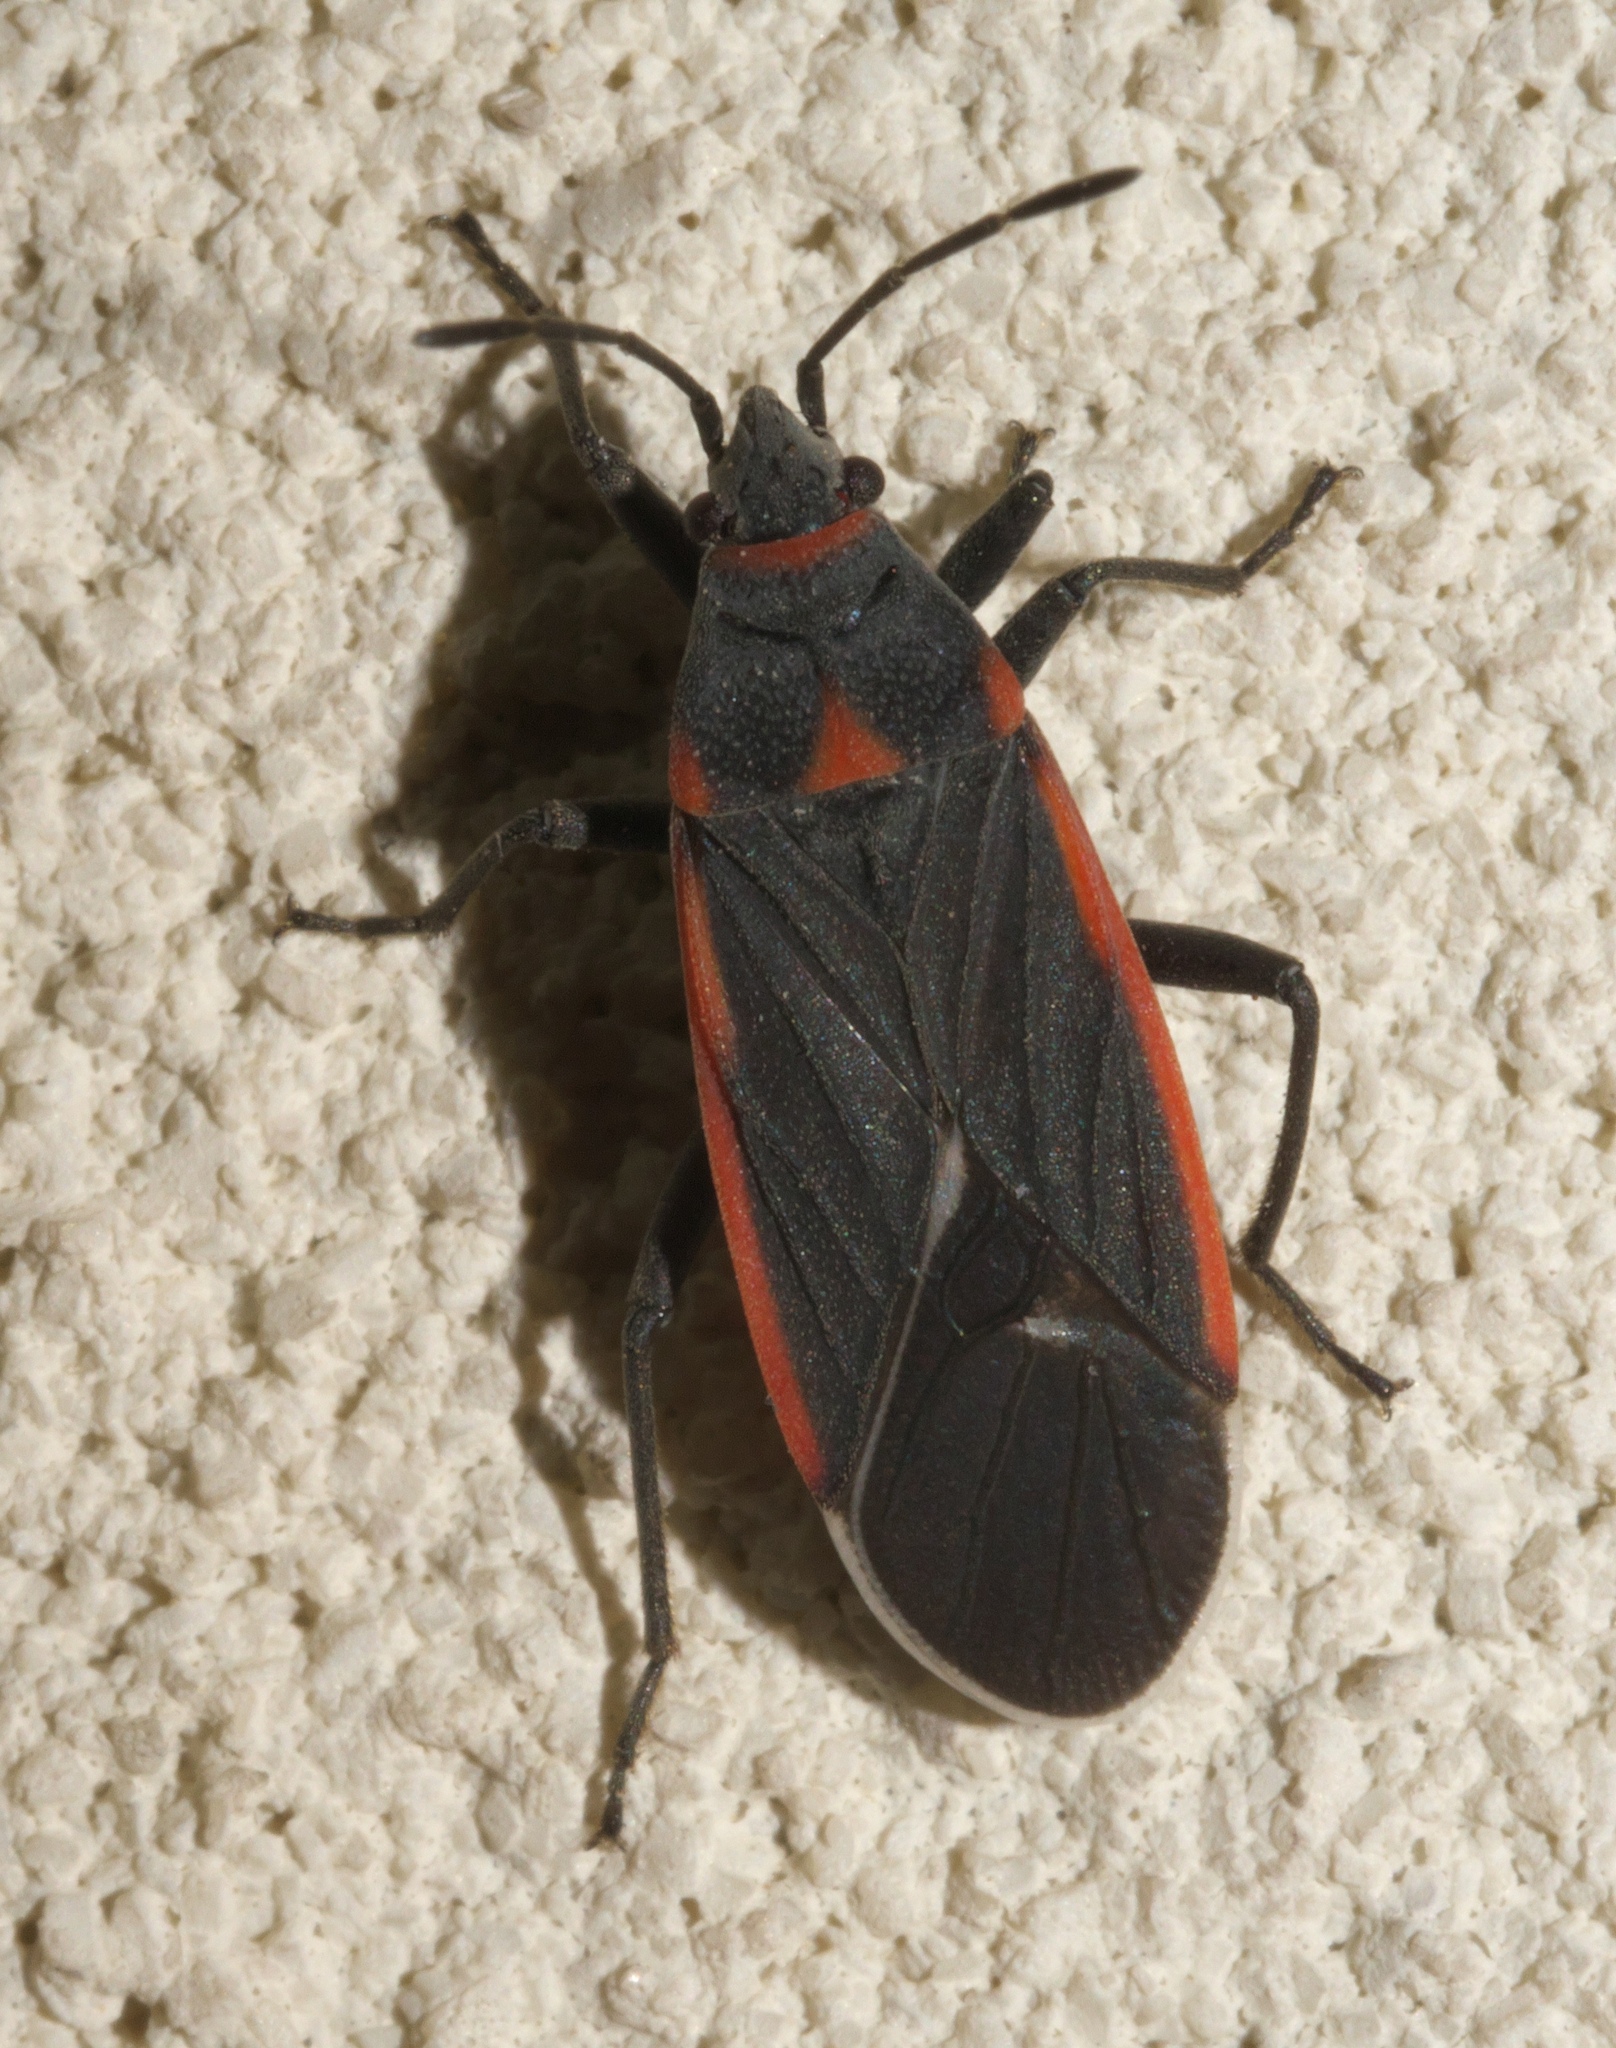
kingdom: Animalia
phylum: Arthropoda
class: Insecta
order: Hemiptera
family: Lygaeidae
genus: Melacoryphus
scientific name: Melacoryphus lateralis
